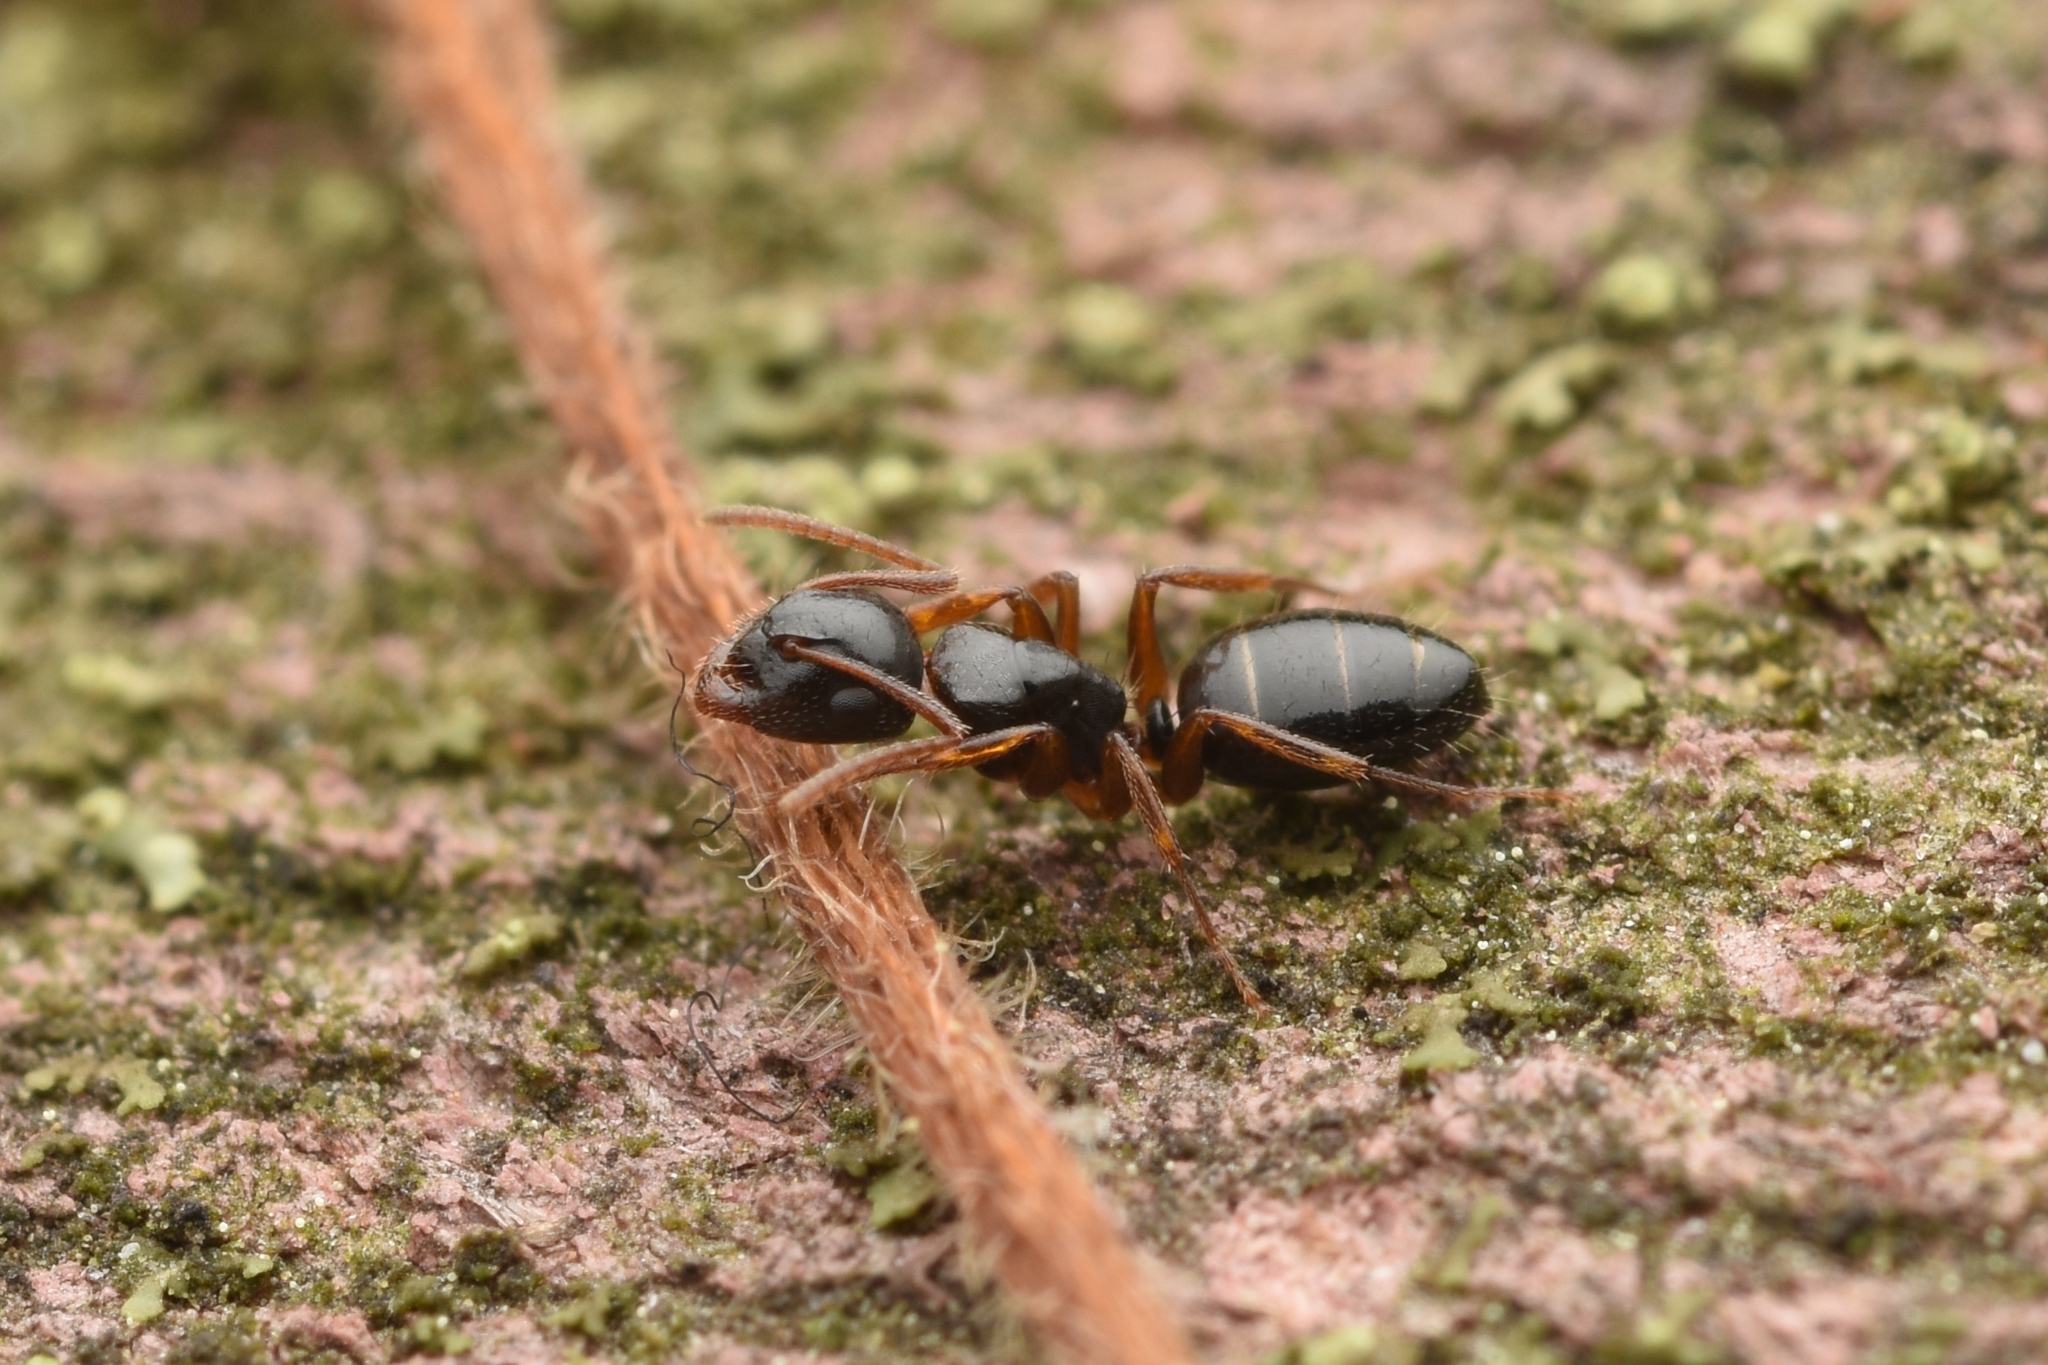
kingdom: Animalia
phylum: Arthropoda
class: Insecta
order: Hymenoptera
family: Formicidae
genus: Camponotus
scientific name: Camponotus itoi
